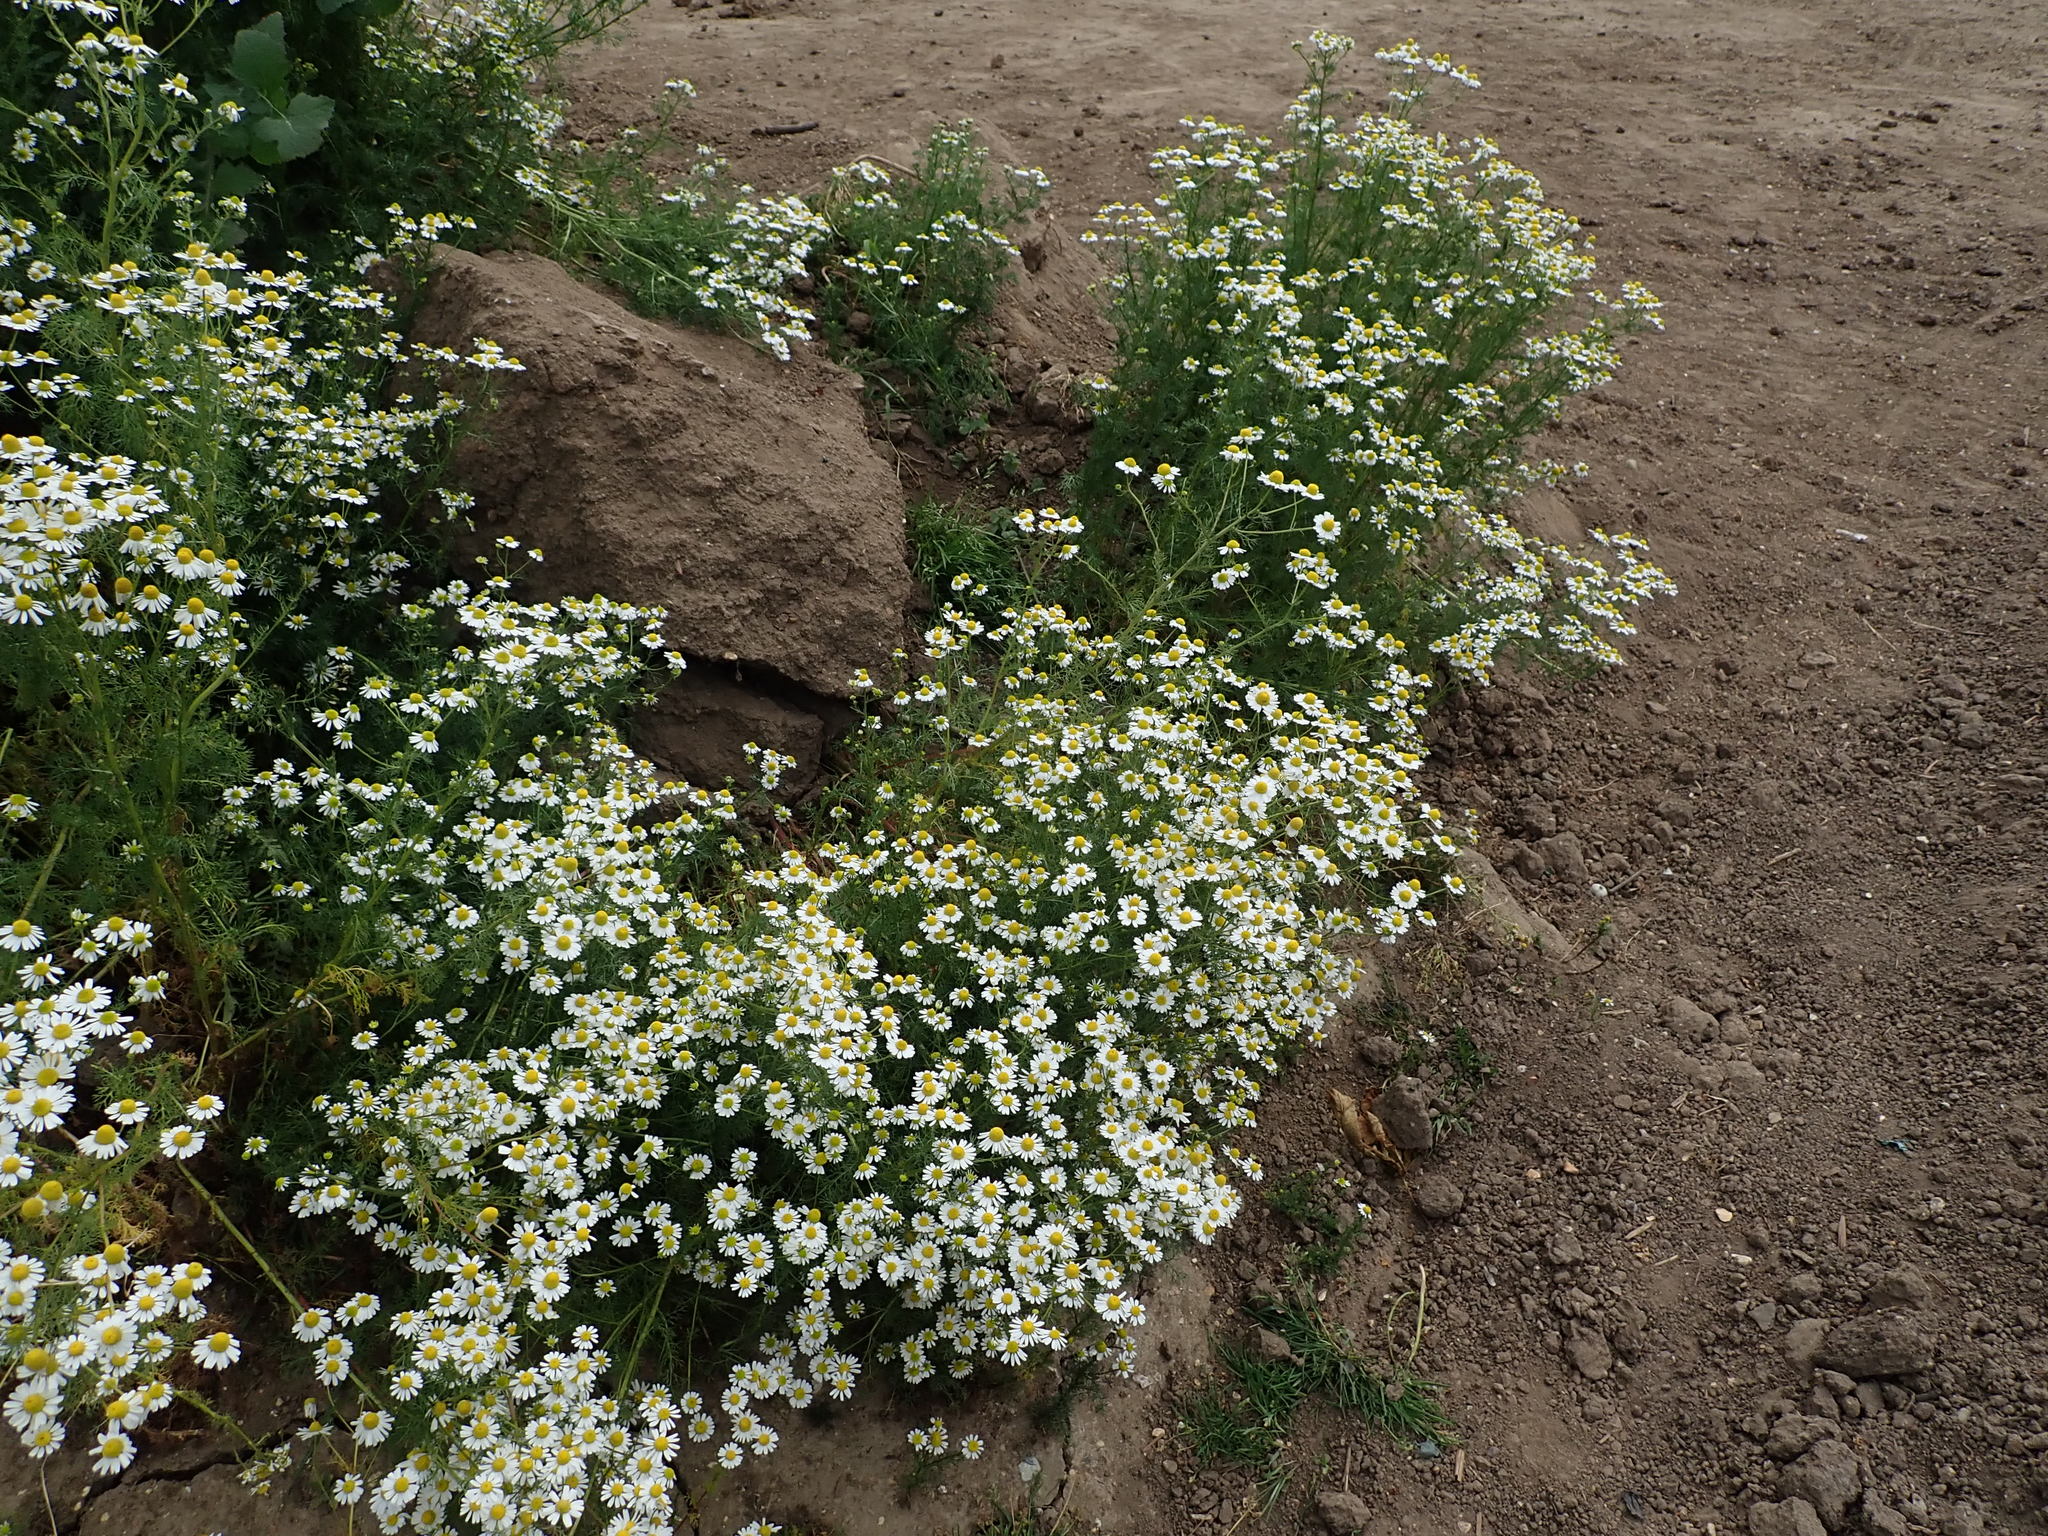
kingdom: Plantae
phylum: Tracheophyta
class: Magnoliopsida
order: Asterales
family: Asteraceae
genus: Matricaria
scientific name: Matricaria chamomilla
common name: Scented mayweed
